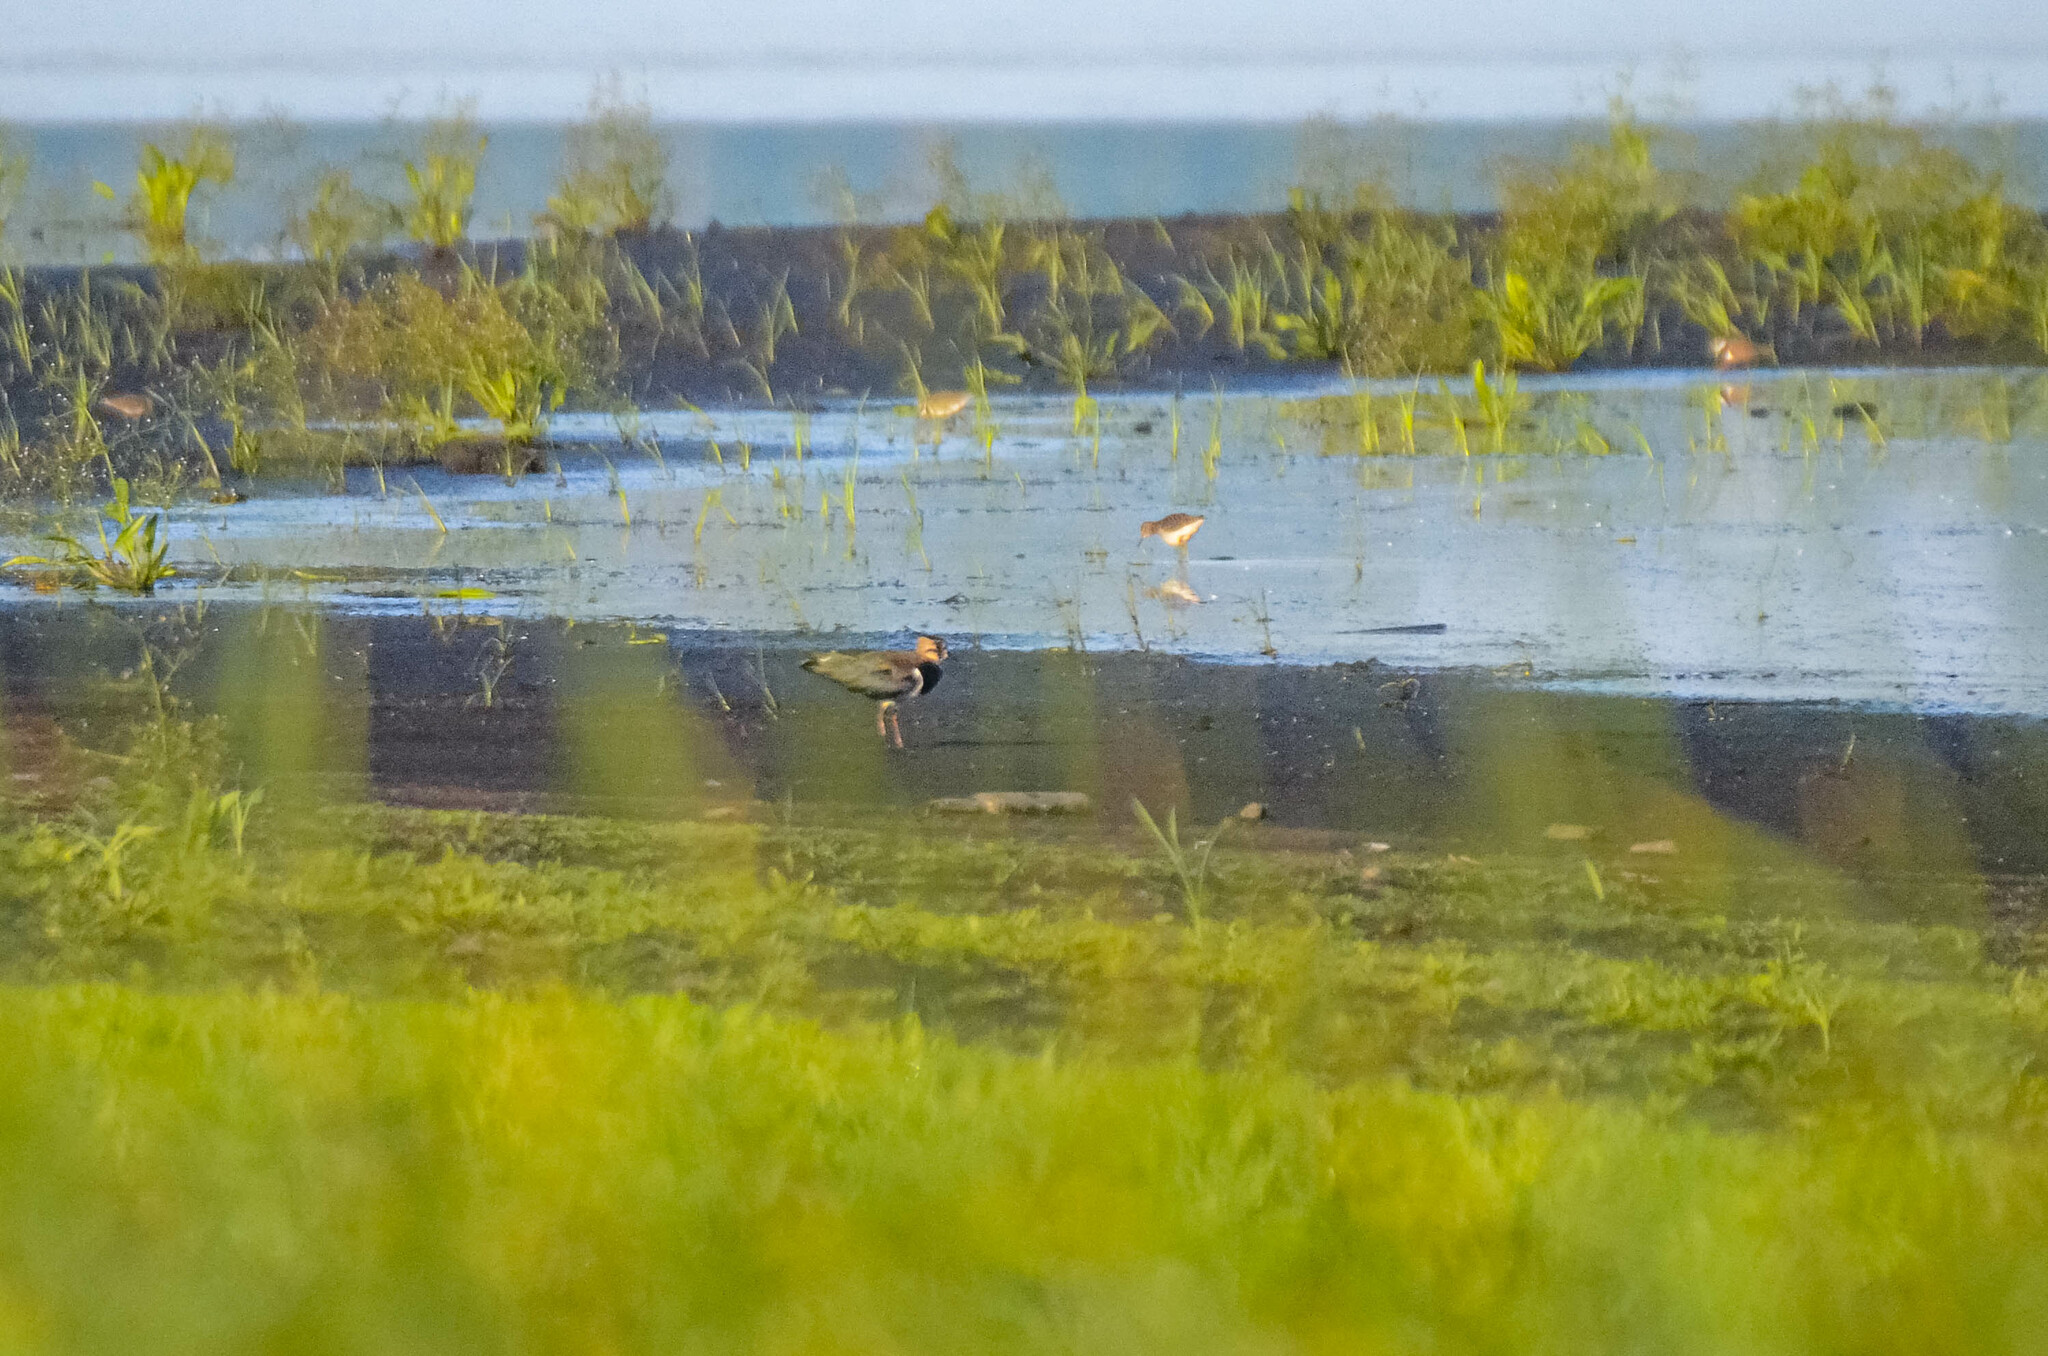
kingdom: Animalia
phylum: Chordata
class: Aves
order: Charadriiformes
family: Charadriidae
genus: Vanellus
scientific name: Vanellus vanellus
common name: Northern lapwing
